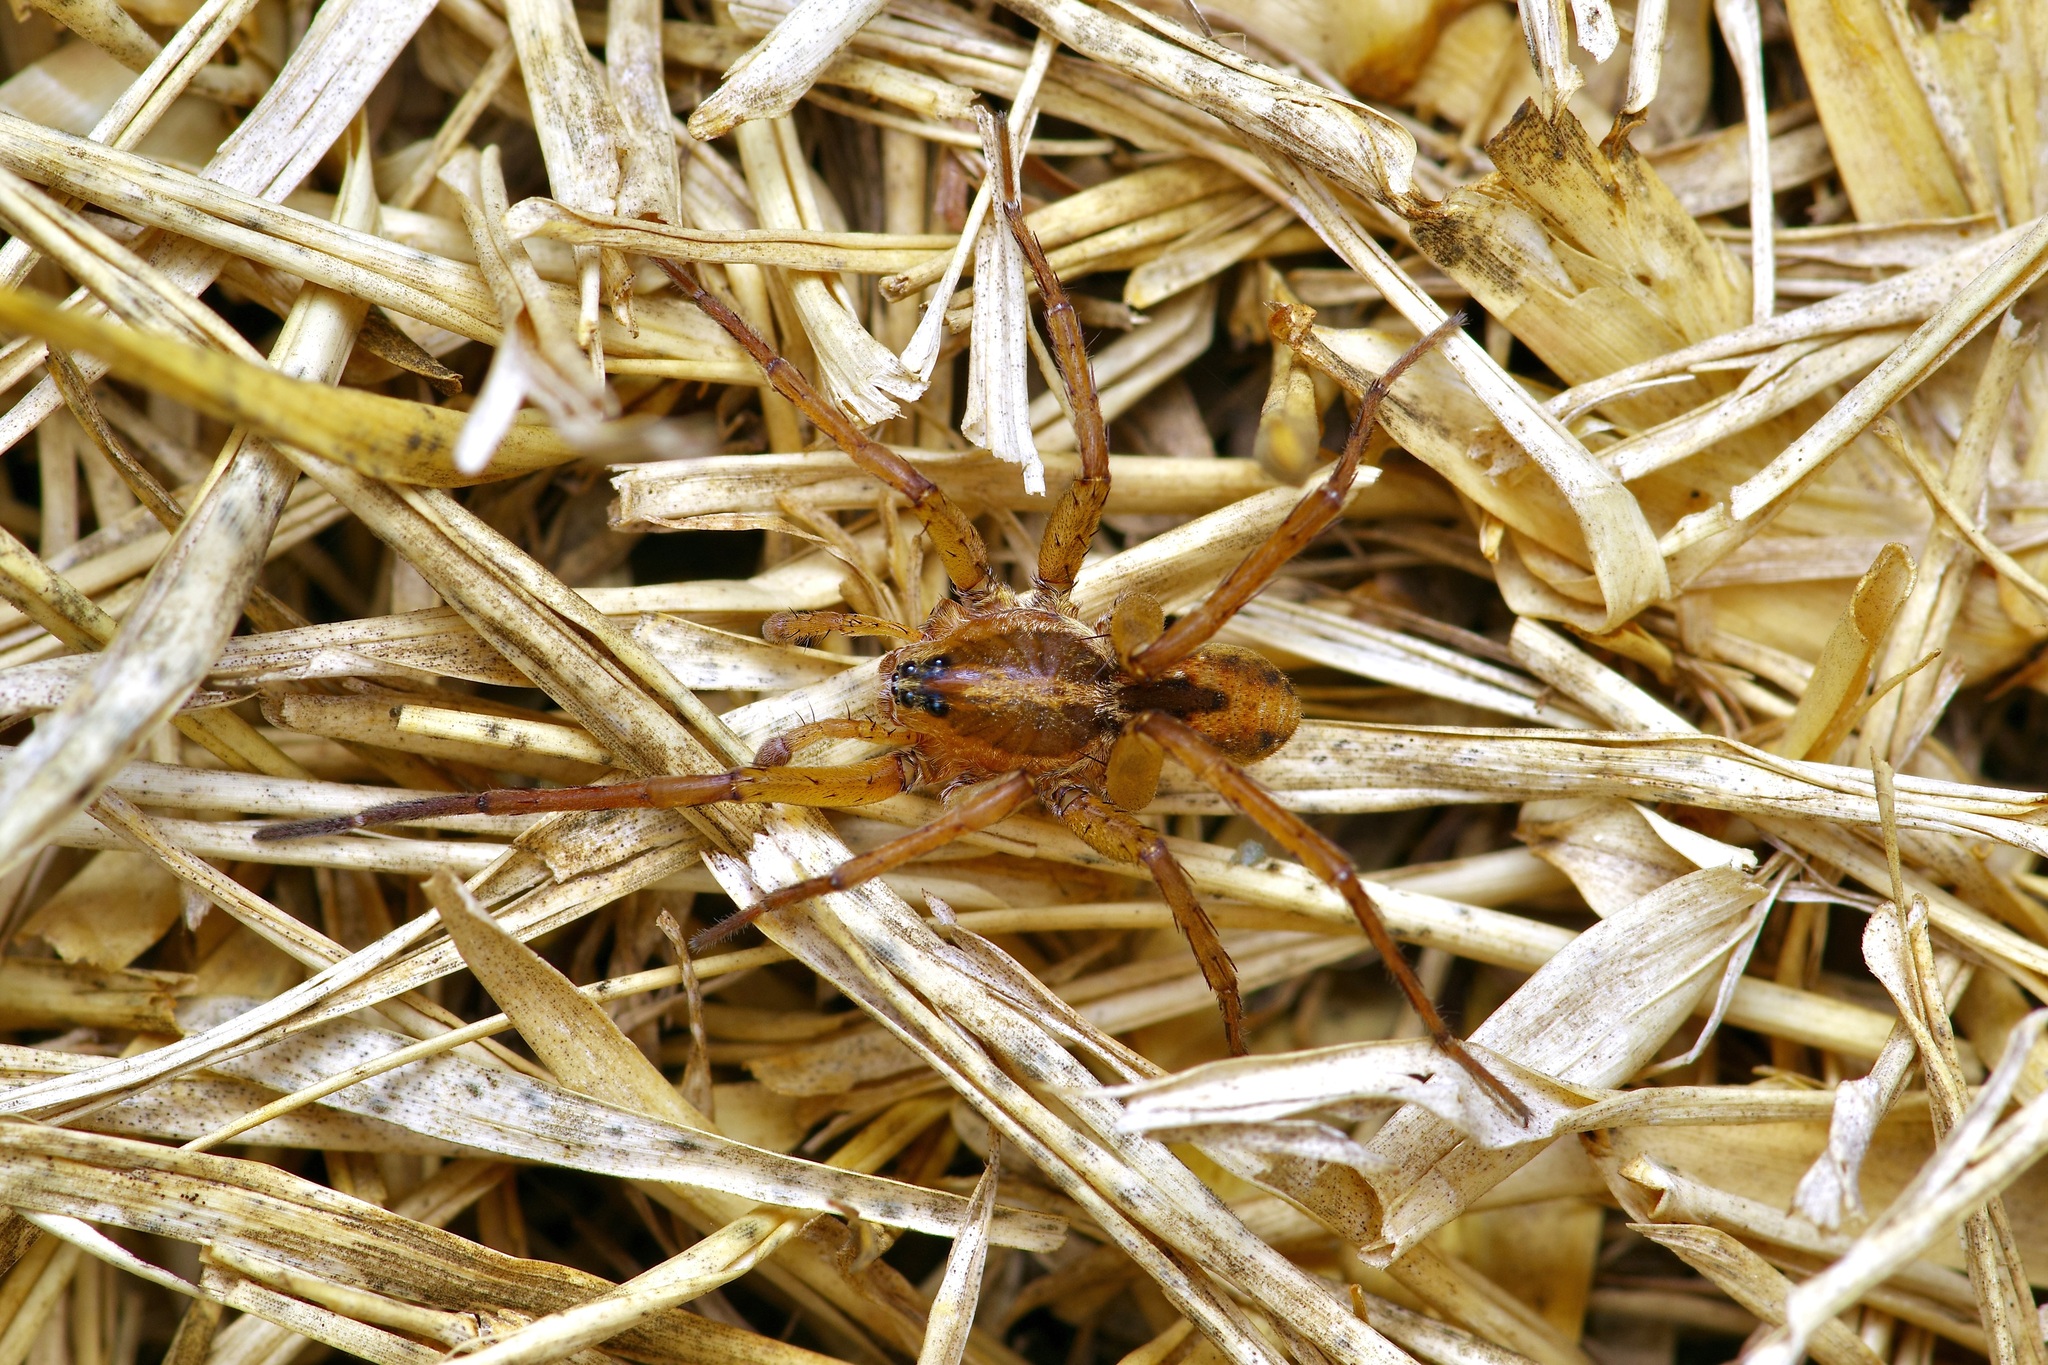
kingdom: Animalia
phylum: Arthropoda
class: Arachnida
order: Araneae
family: Lycosidae
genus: Tigrosa
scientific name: Tigrosa annexa
